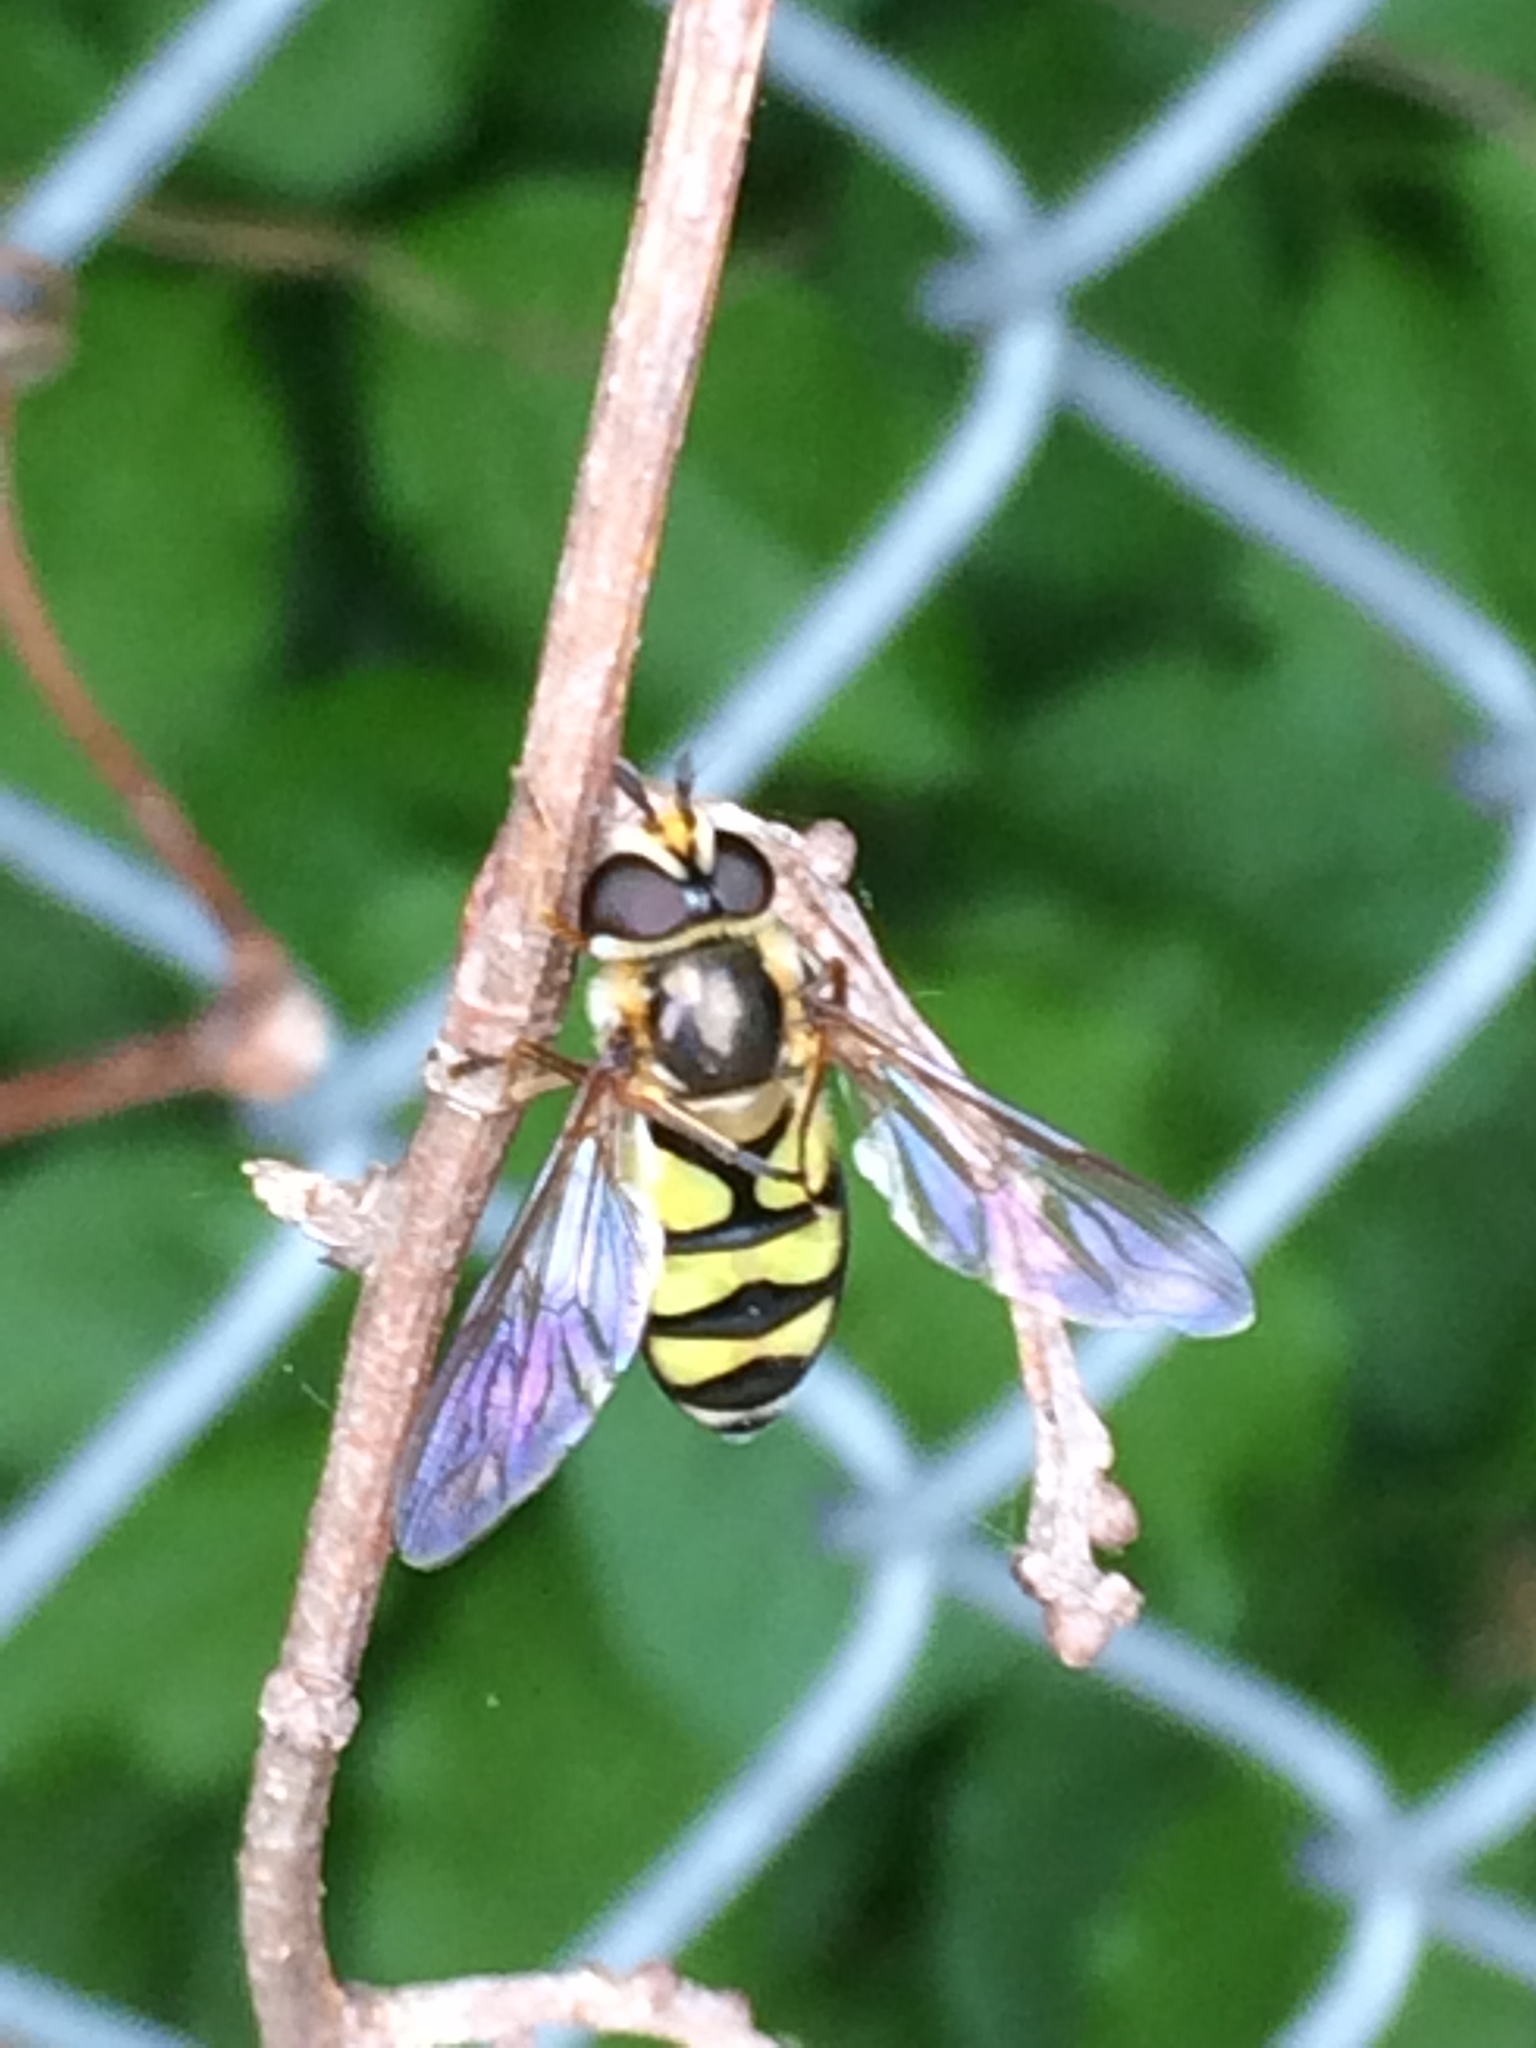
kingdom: Animalia
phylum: Arthropoda
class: Insecta
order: Diptera
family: Syrphidae
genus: Didea
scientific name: Didea fuscipes
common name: Undivided lucent
